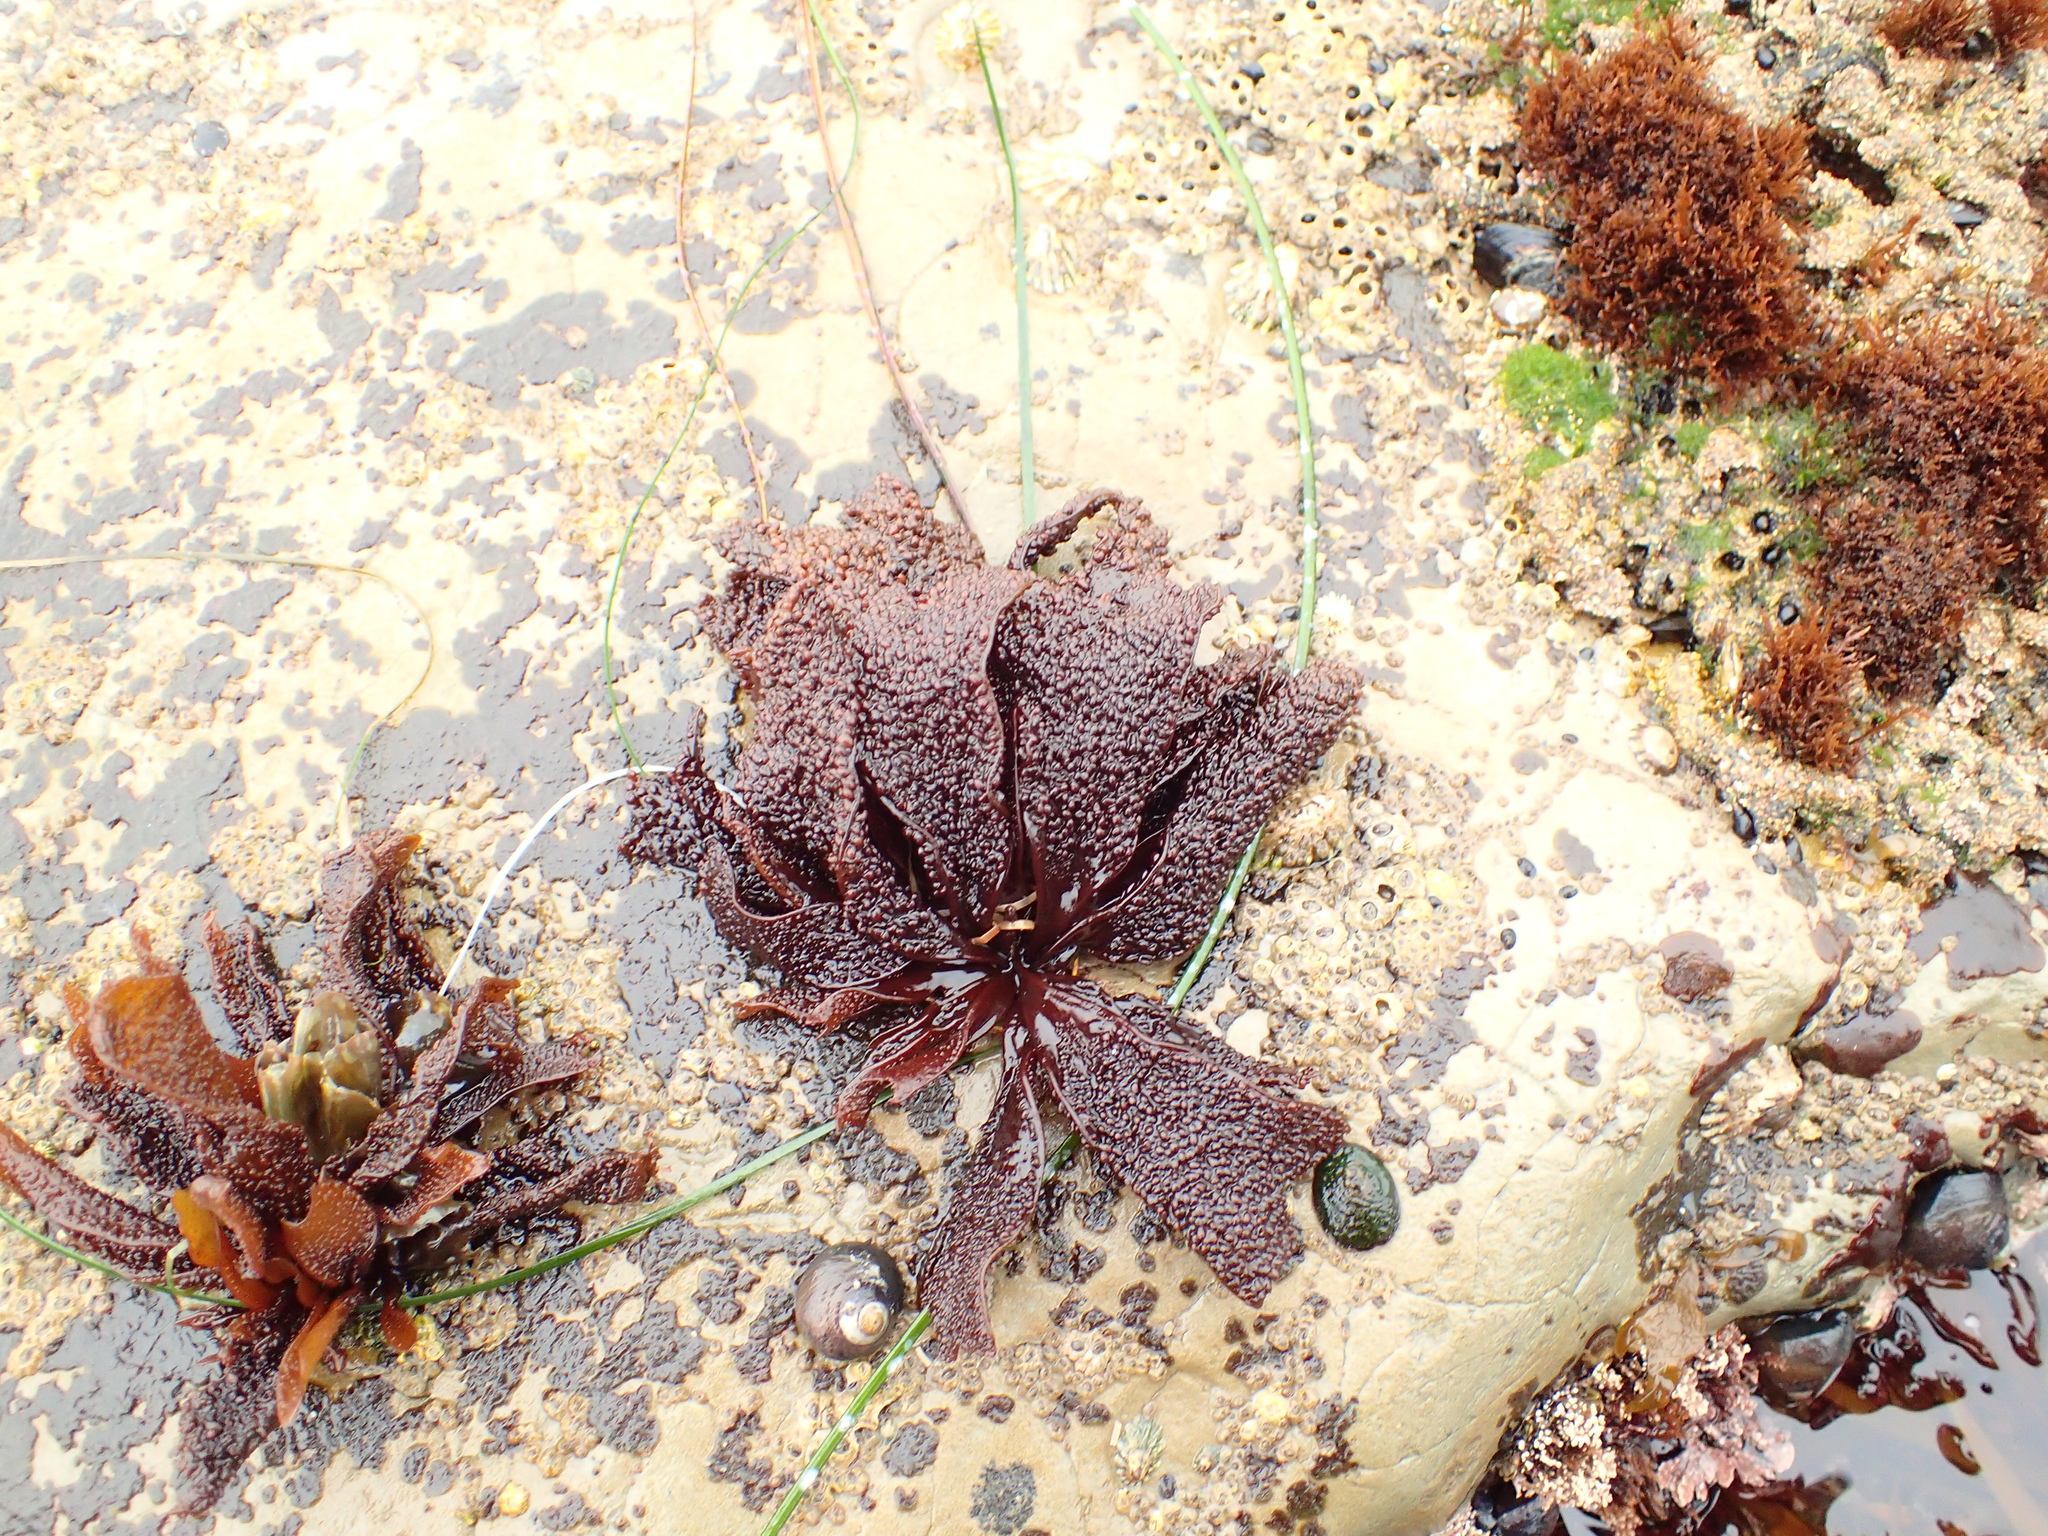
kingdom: Plantae
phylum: Rhodophyta
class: Florideophyceae
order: Gigartinales
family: Phyllophoraceae
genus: Mastocarpus
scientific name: Mastocarpus papillatus
